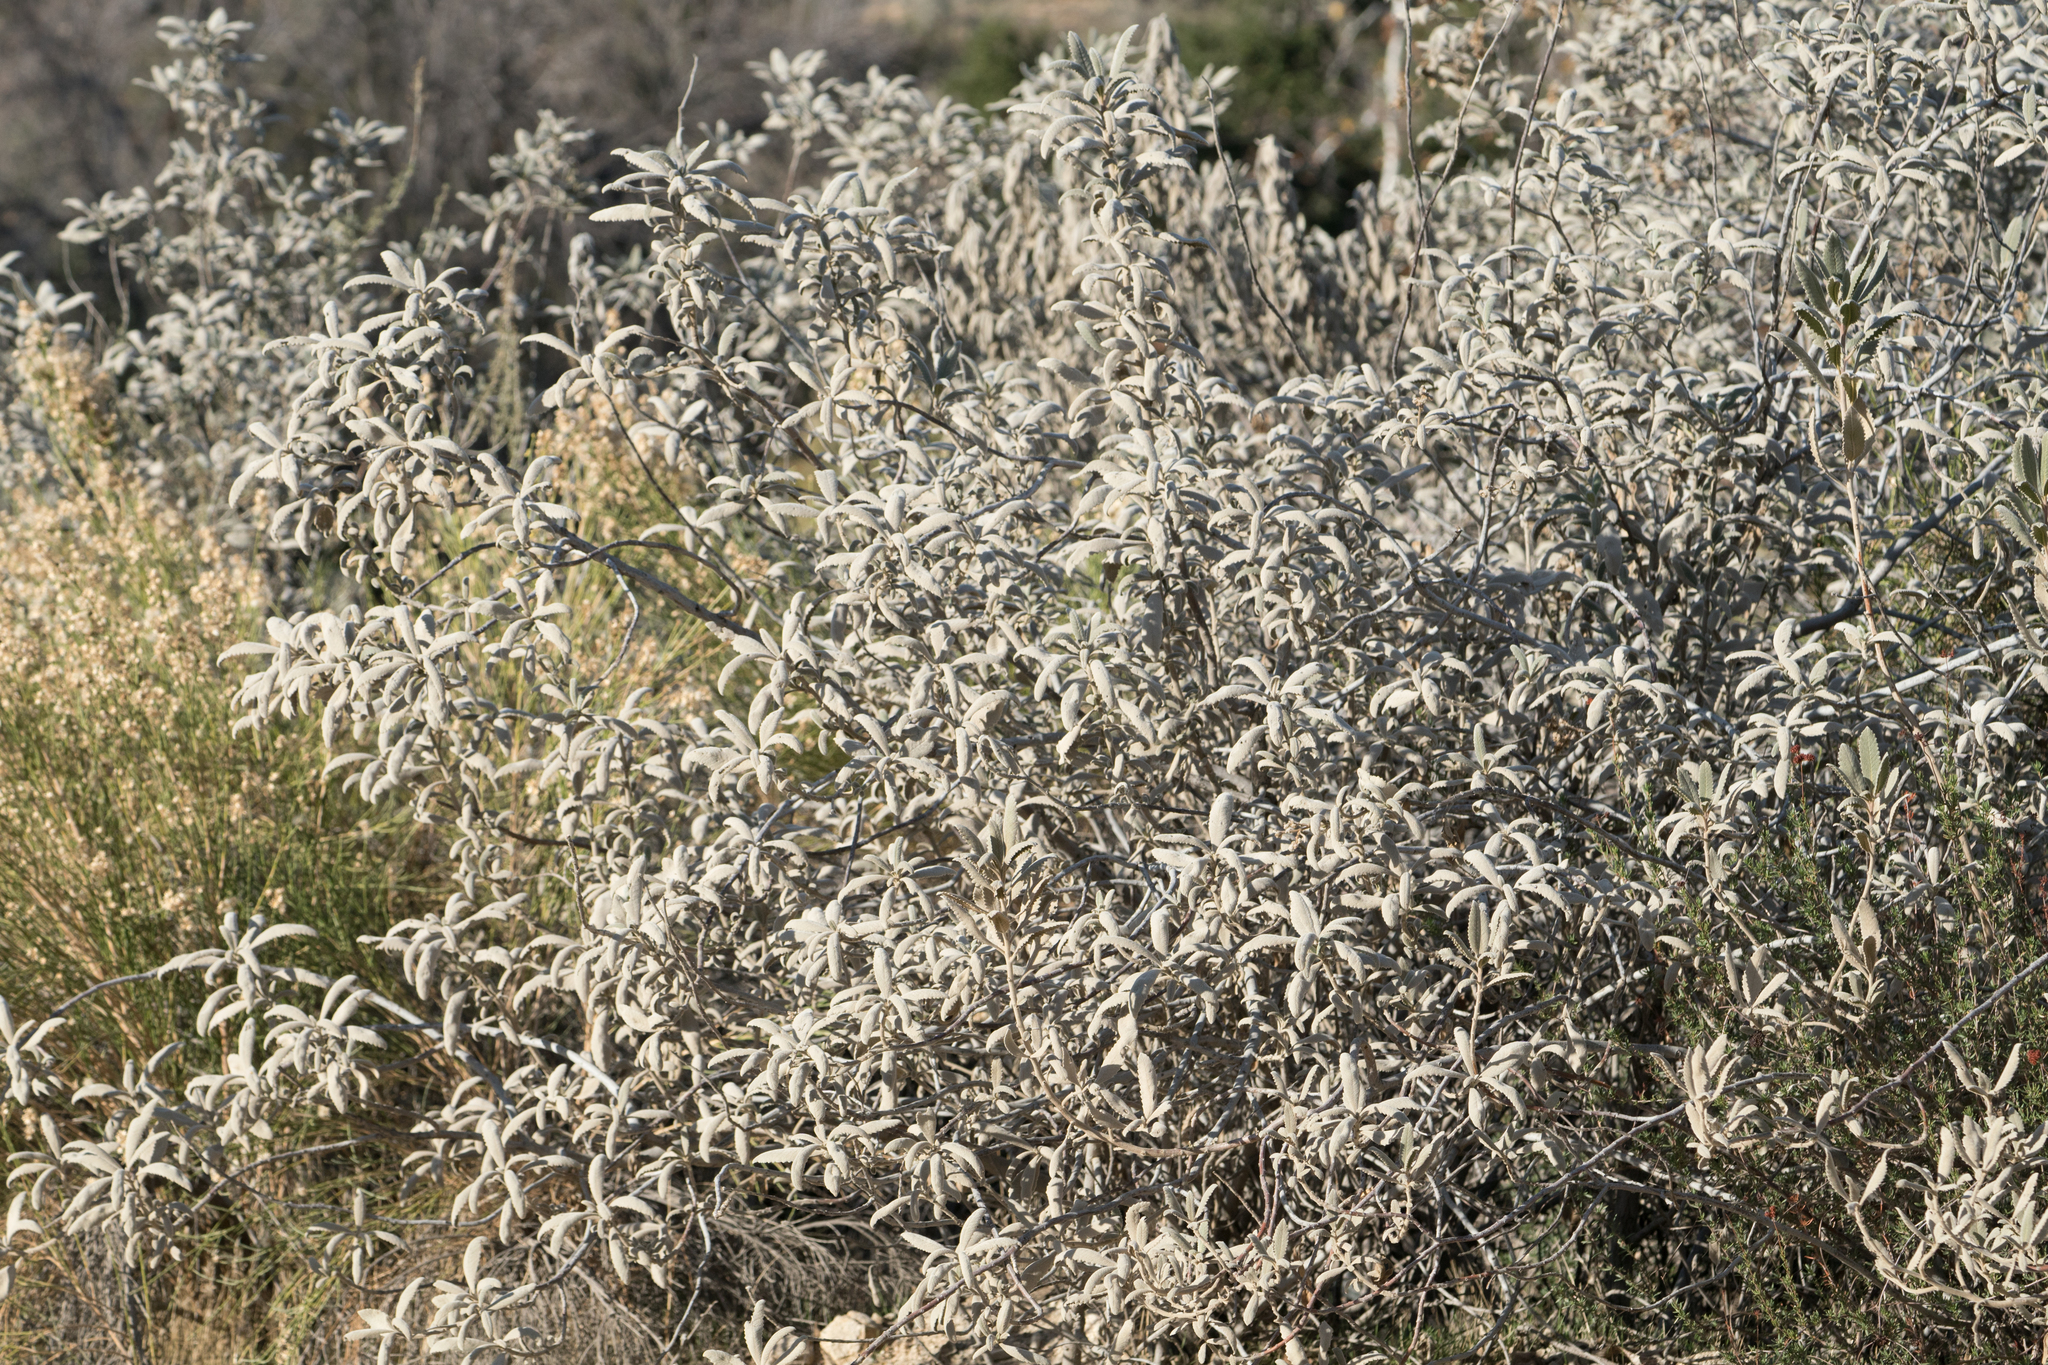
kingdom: Plantae
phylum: Tracheophyta
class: Magnoliopsida
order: Boraginales
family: Namaceae
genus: Eriodictyon
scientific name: Eriodictyon
